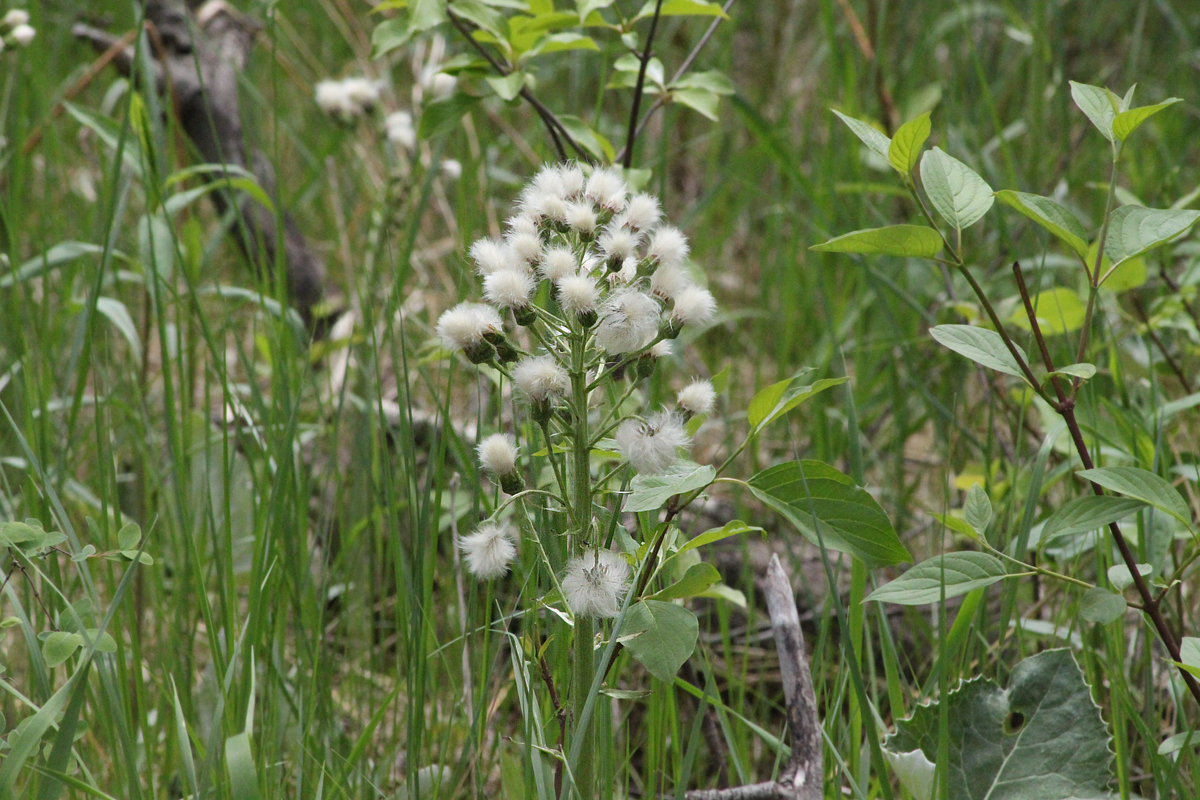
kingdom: Plantae
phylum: Tracheophyta
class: Magnoliopsida
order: Asterales
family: Asteraceae
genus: Petasites
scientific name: Petasites frigidus
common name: Arctic butterbur
